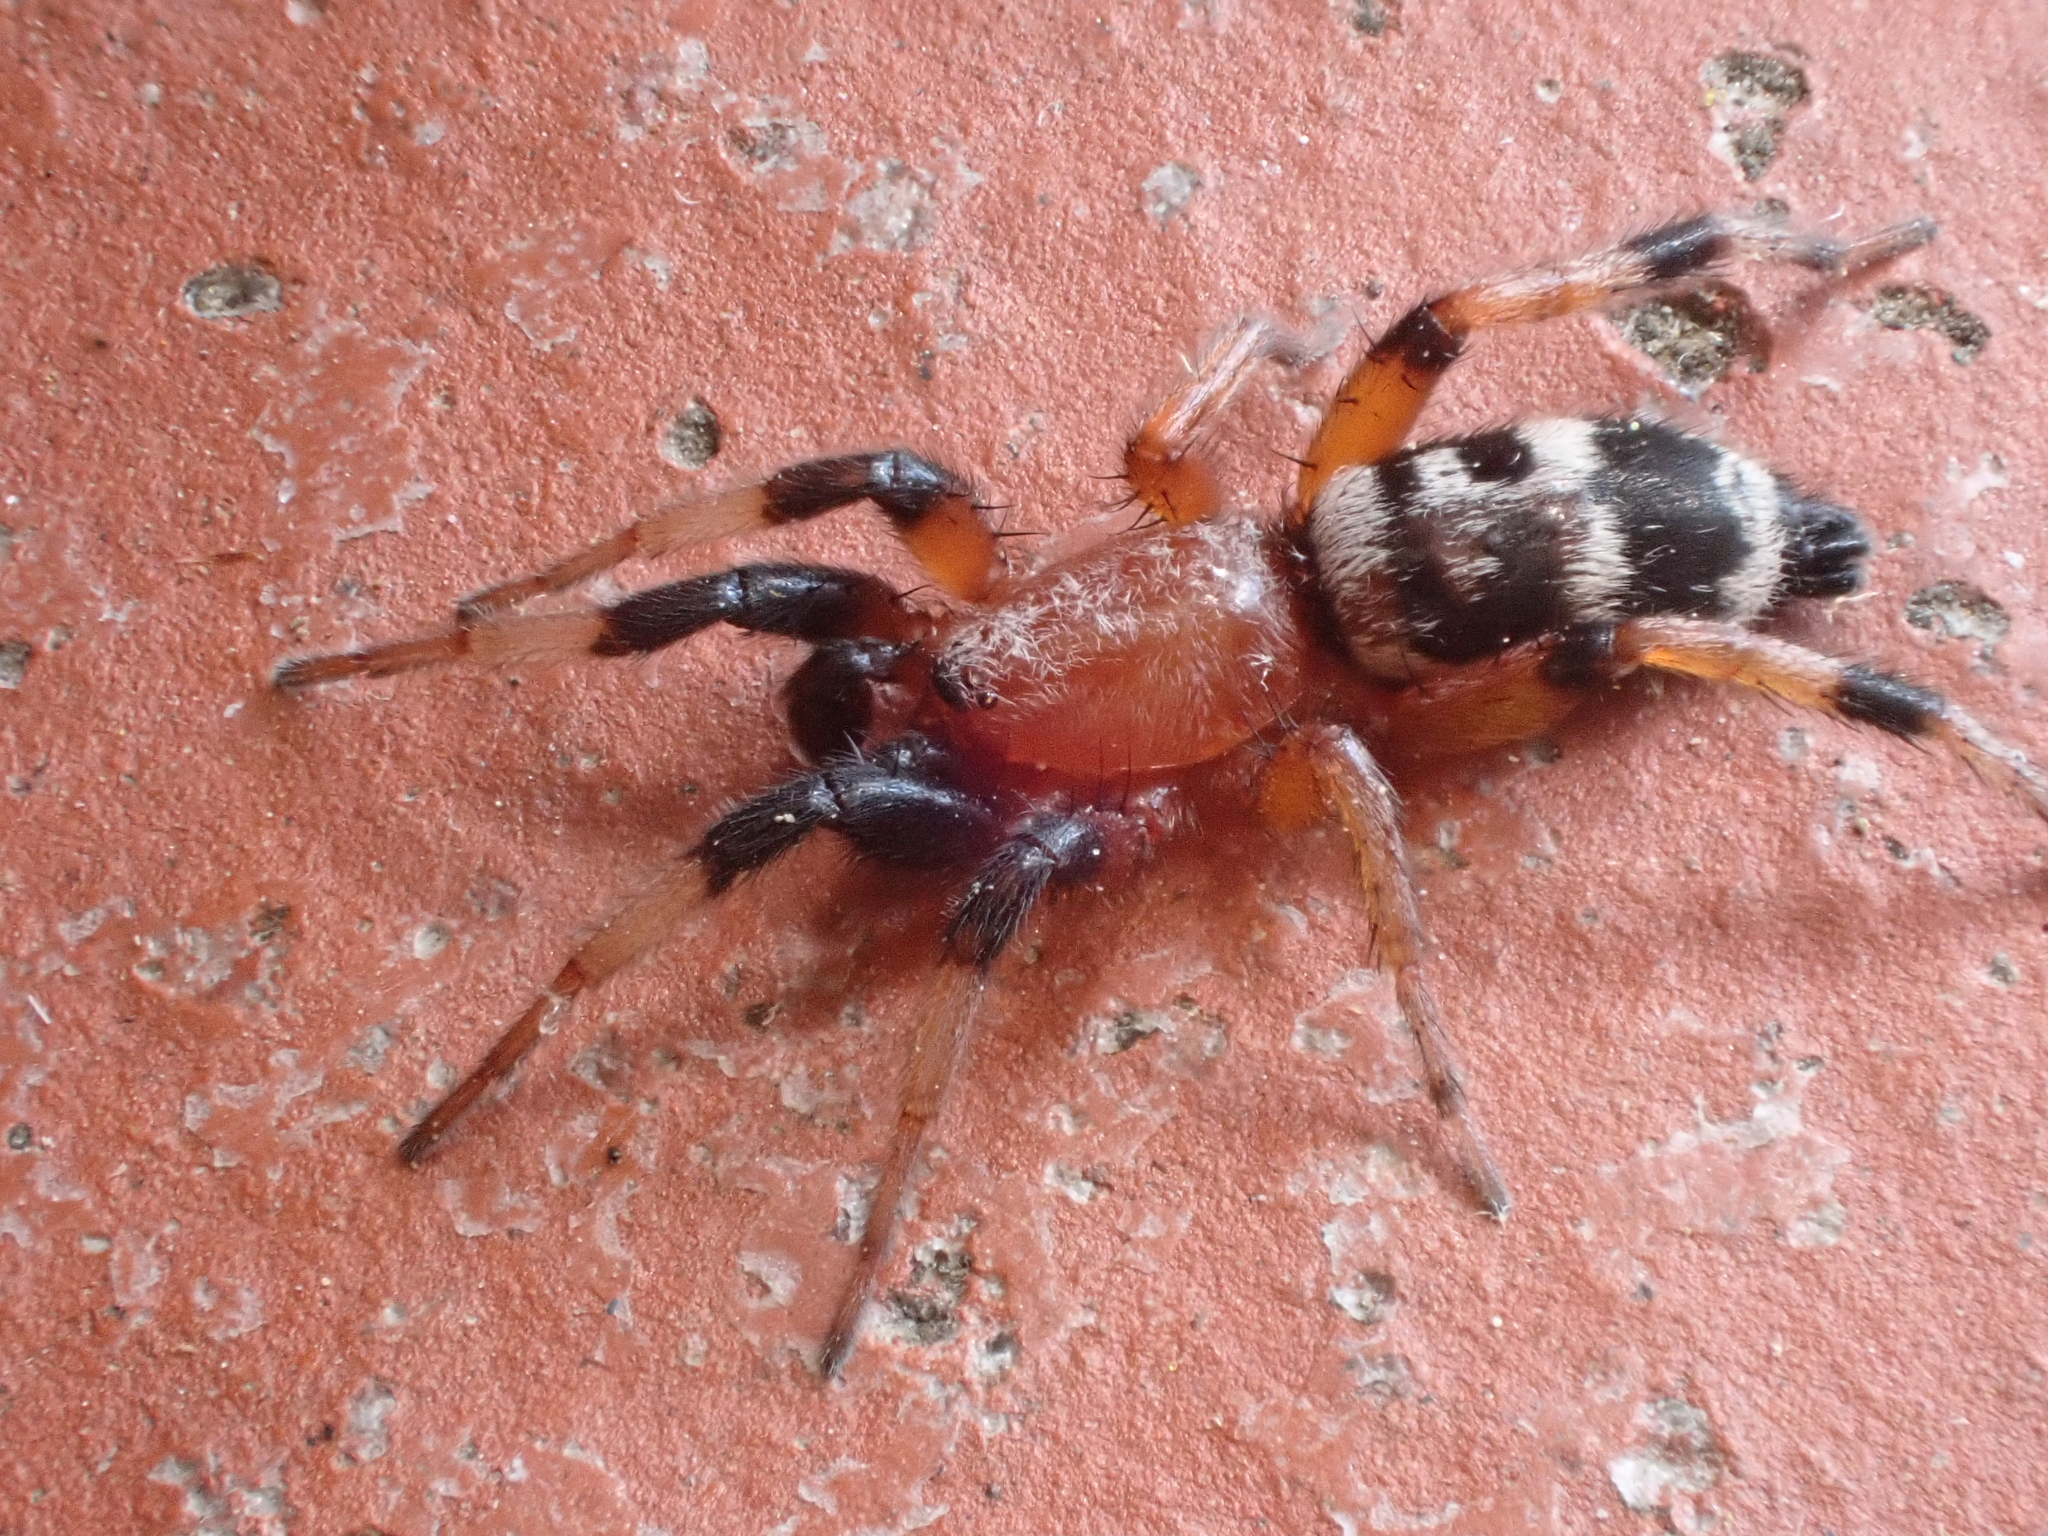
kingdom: Animalia
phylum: Arthropoda
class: Arachnida
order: Araneae
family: Gnaphosidae
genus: Sergiolus
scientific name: Sergiolus capulatus
